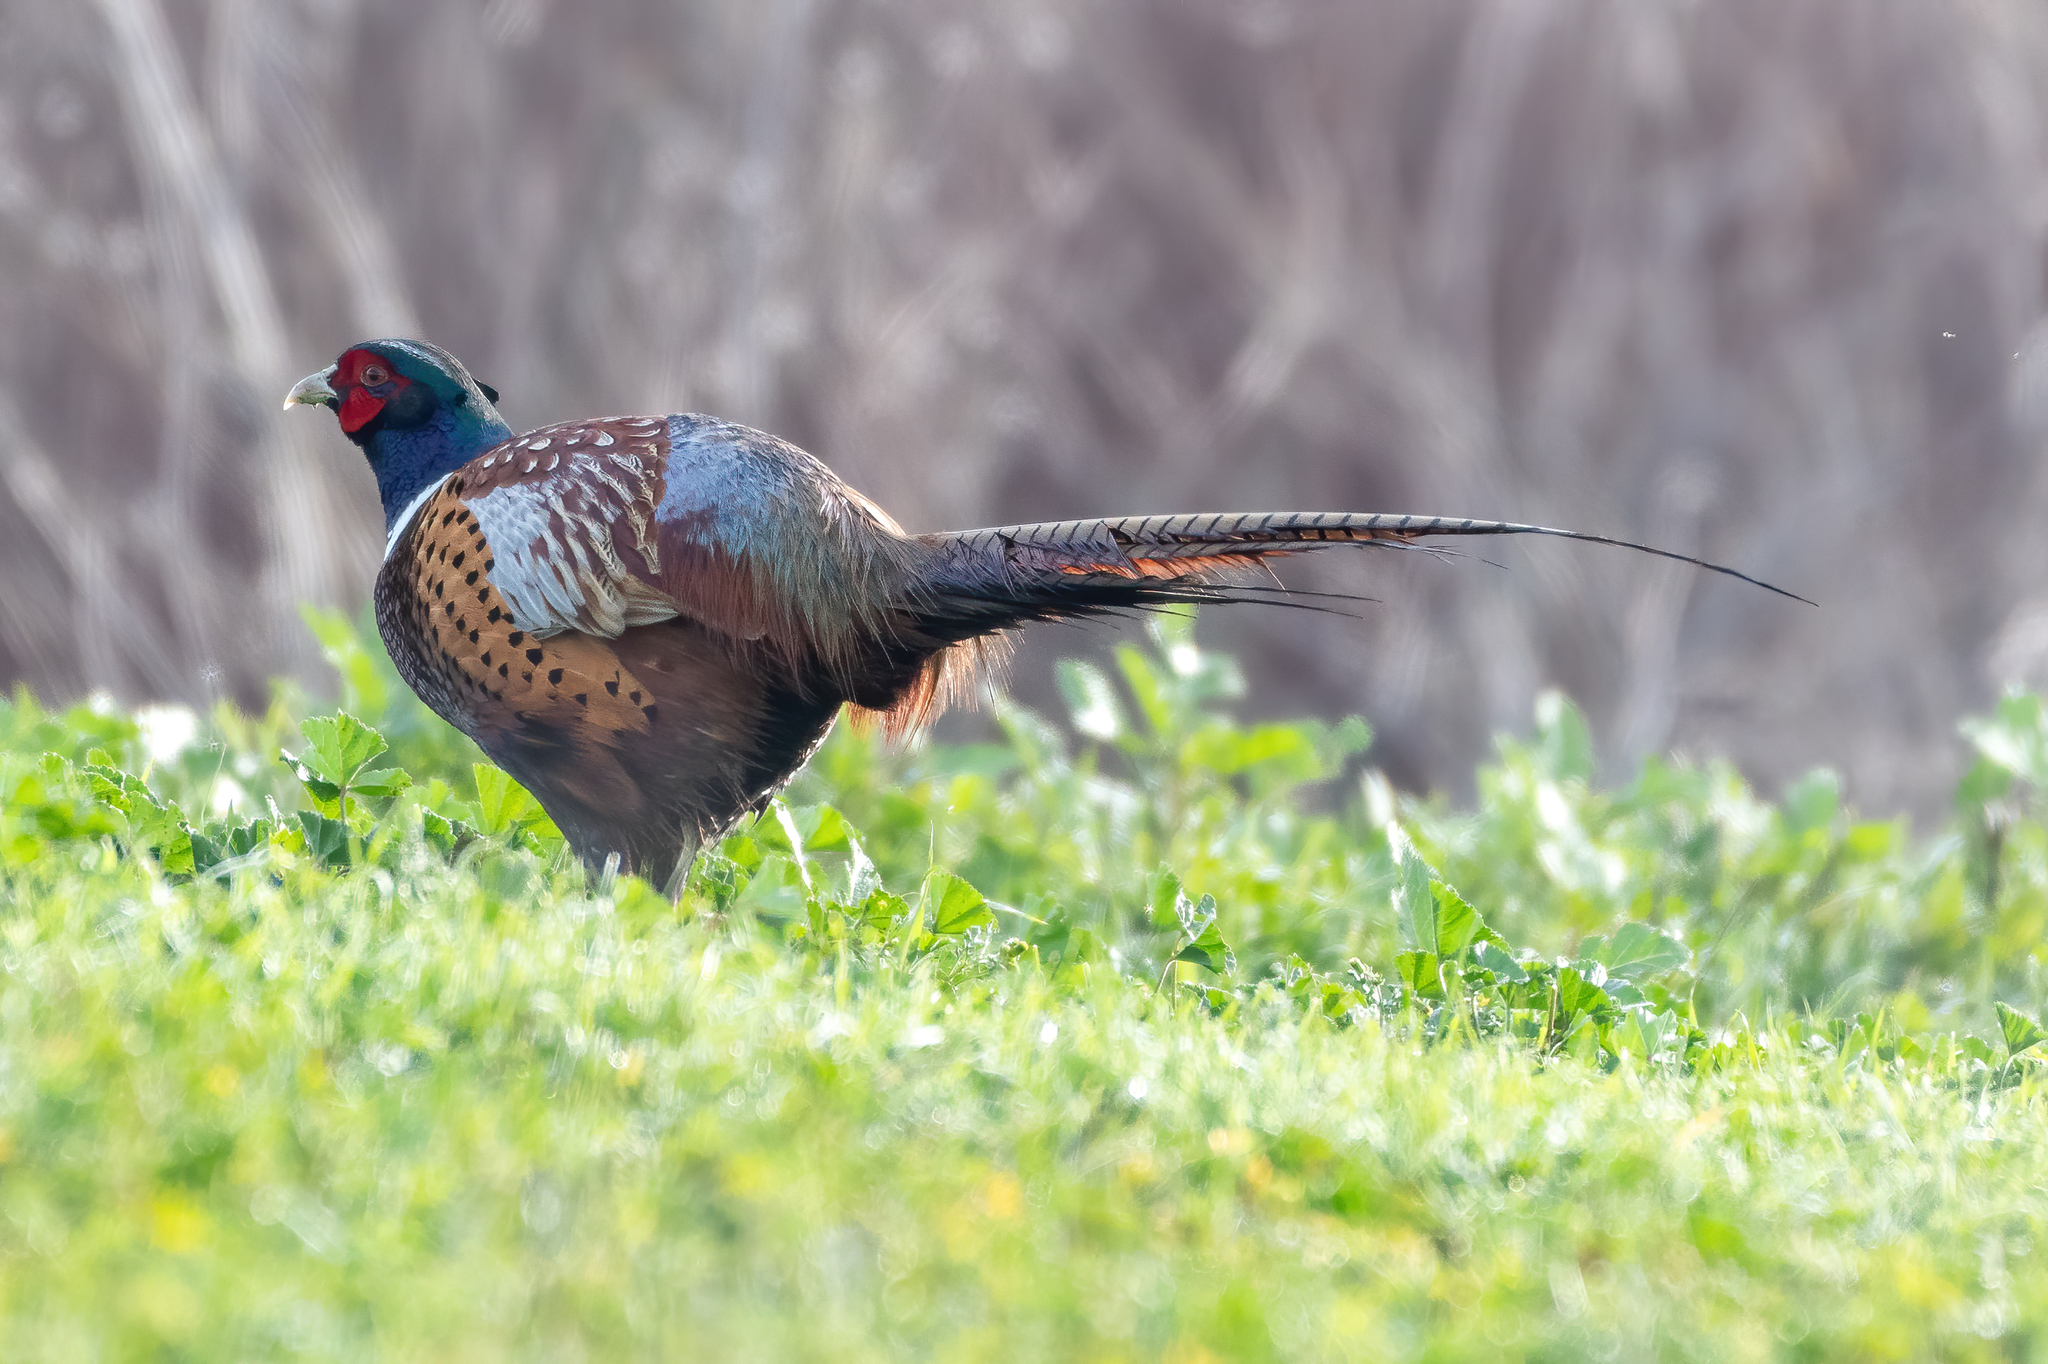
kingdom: Animalia
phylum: Chordata
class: Aves
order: Galliformes
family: Phasianidae
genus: Phasianus
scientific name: Phasianus colchicus
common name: Common pheasant
